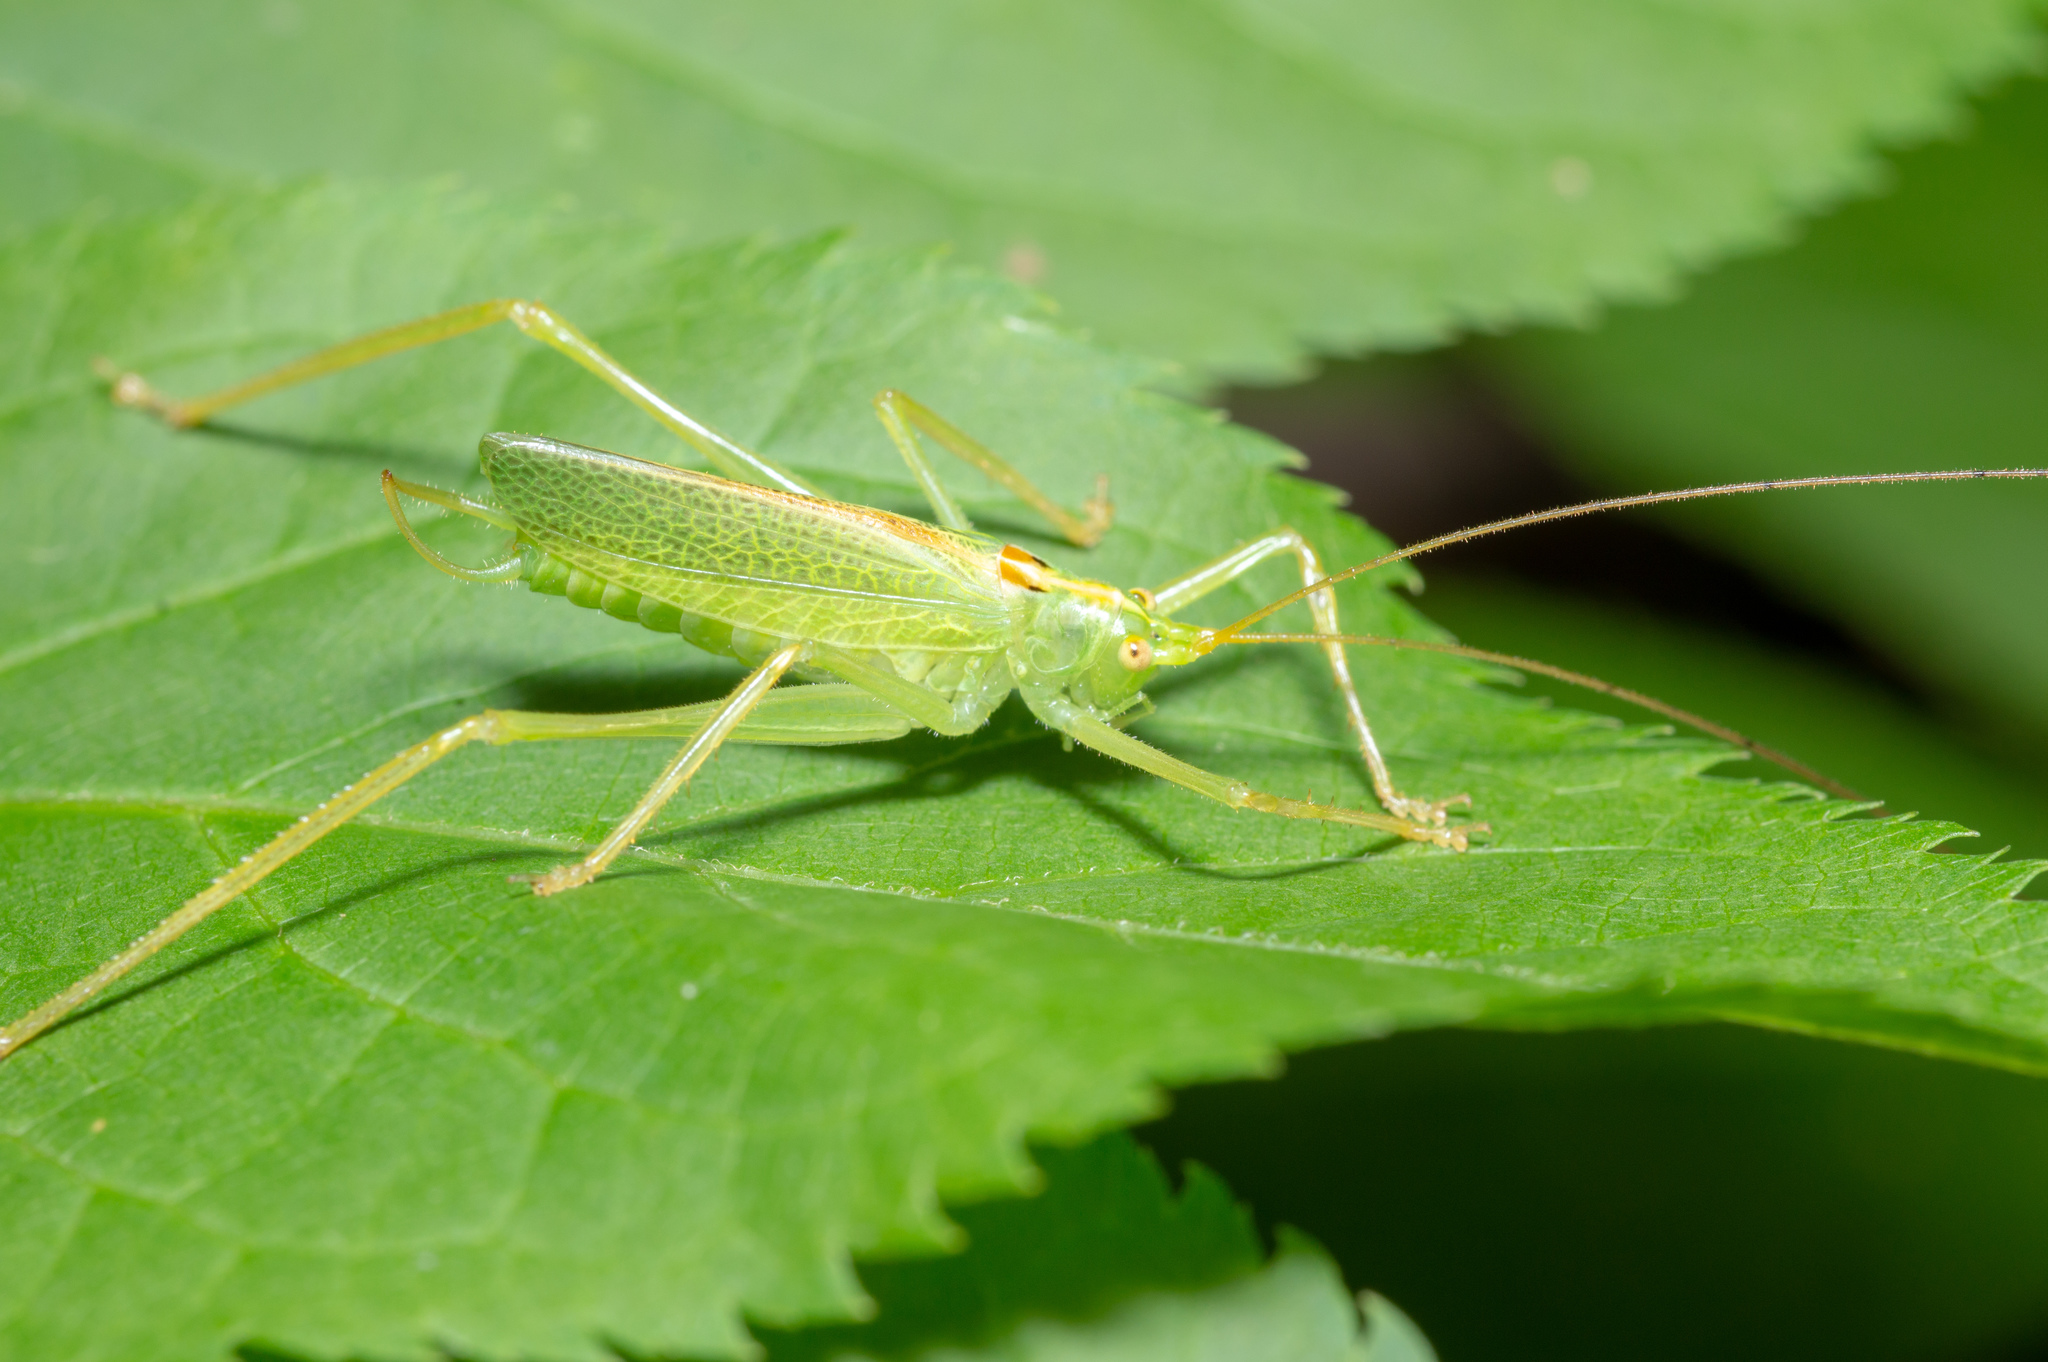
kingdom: Animalia
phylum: Arthropoda
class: Insecta
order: Orthoptera
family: Tettigoniidae
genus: Meconema
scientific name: Meconema thalassinum
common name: Oak bush-cricket
